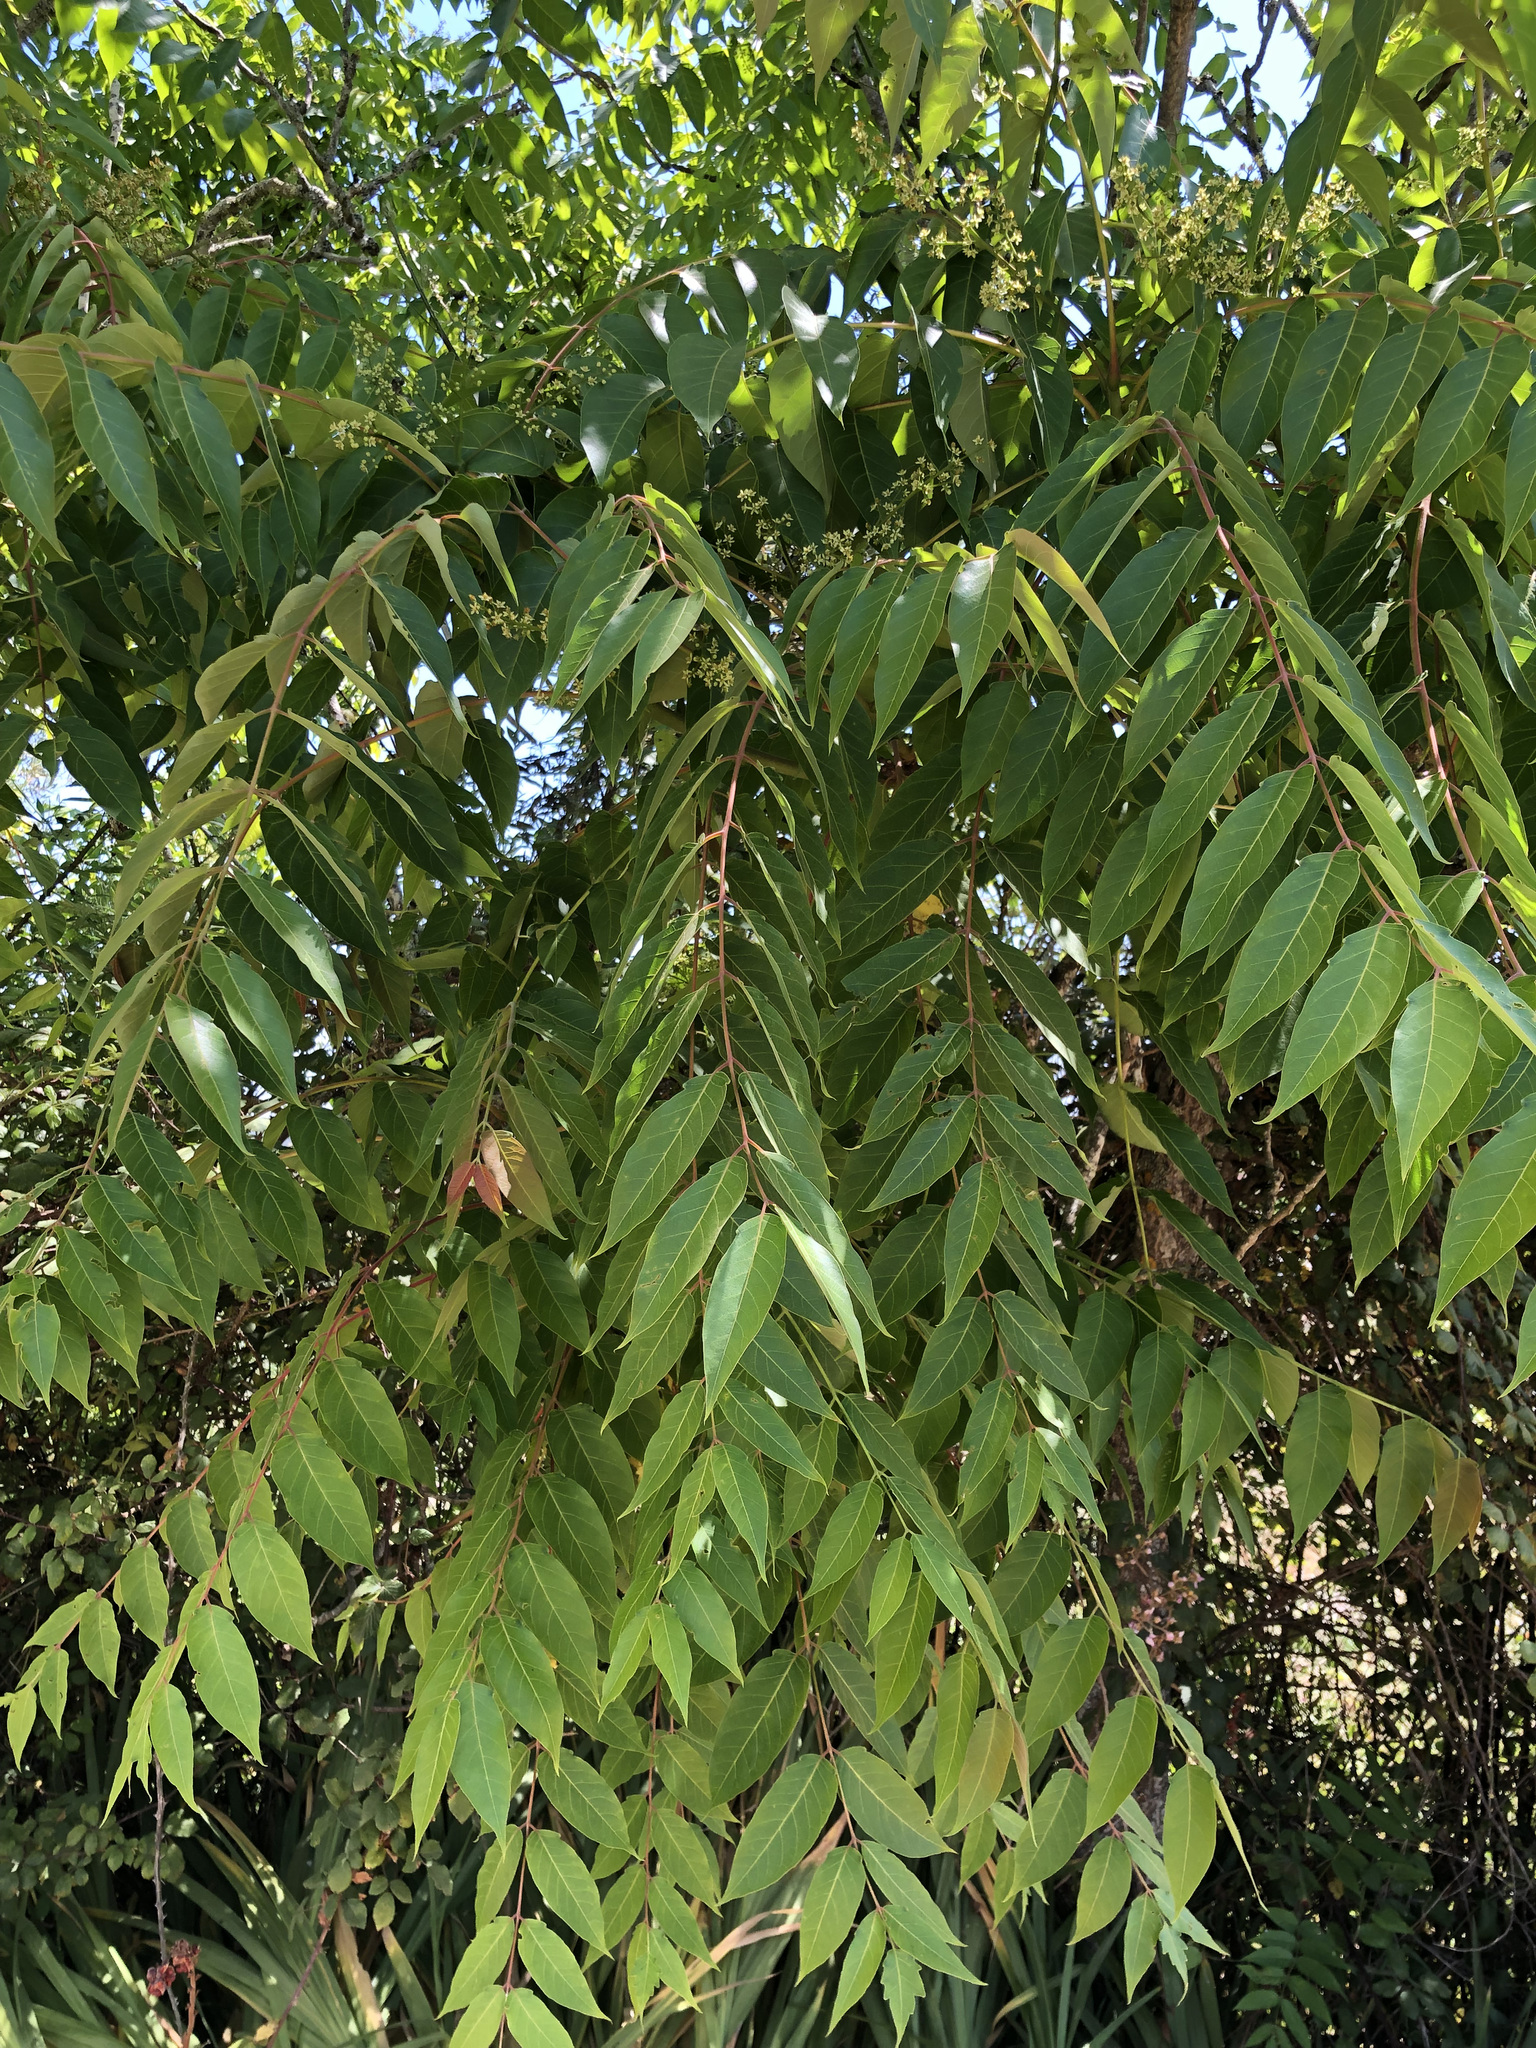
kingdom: Plantae
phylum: Tracheophyta
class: Magnoliopsida
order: Sapindales
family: Simaroubaceae
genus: Ailanthus
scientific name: Ailanthus altissima
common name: Tree-of-heaven
